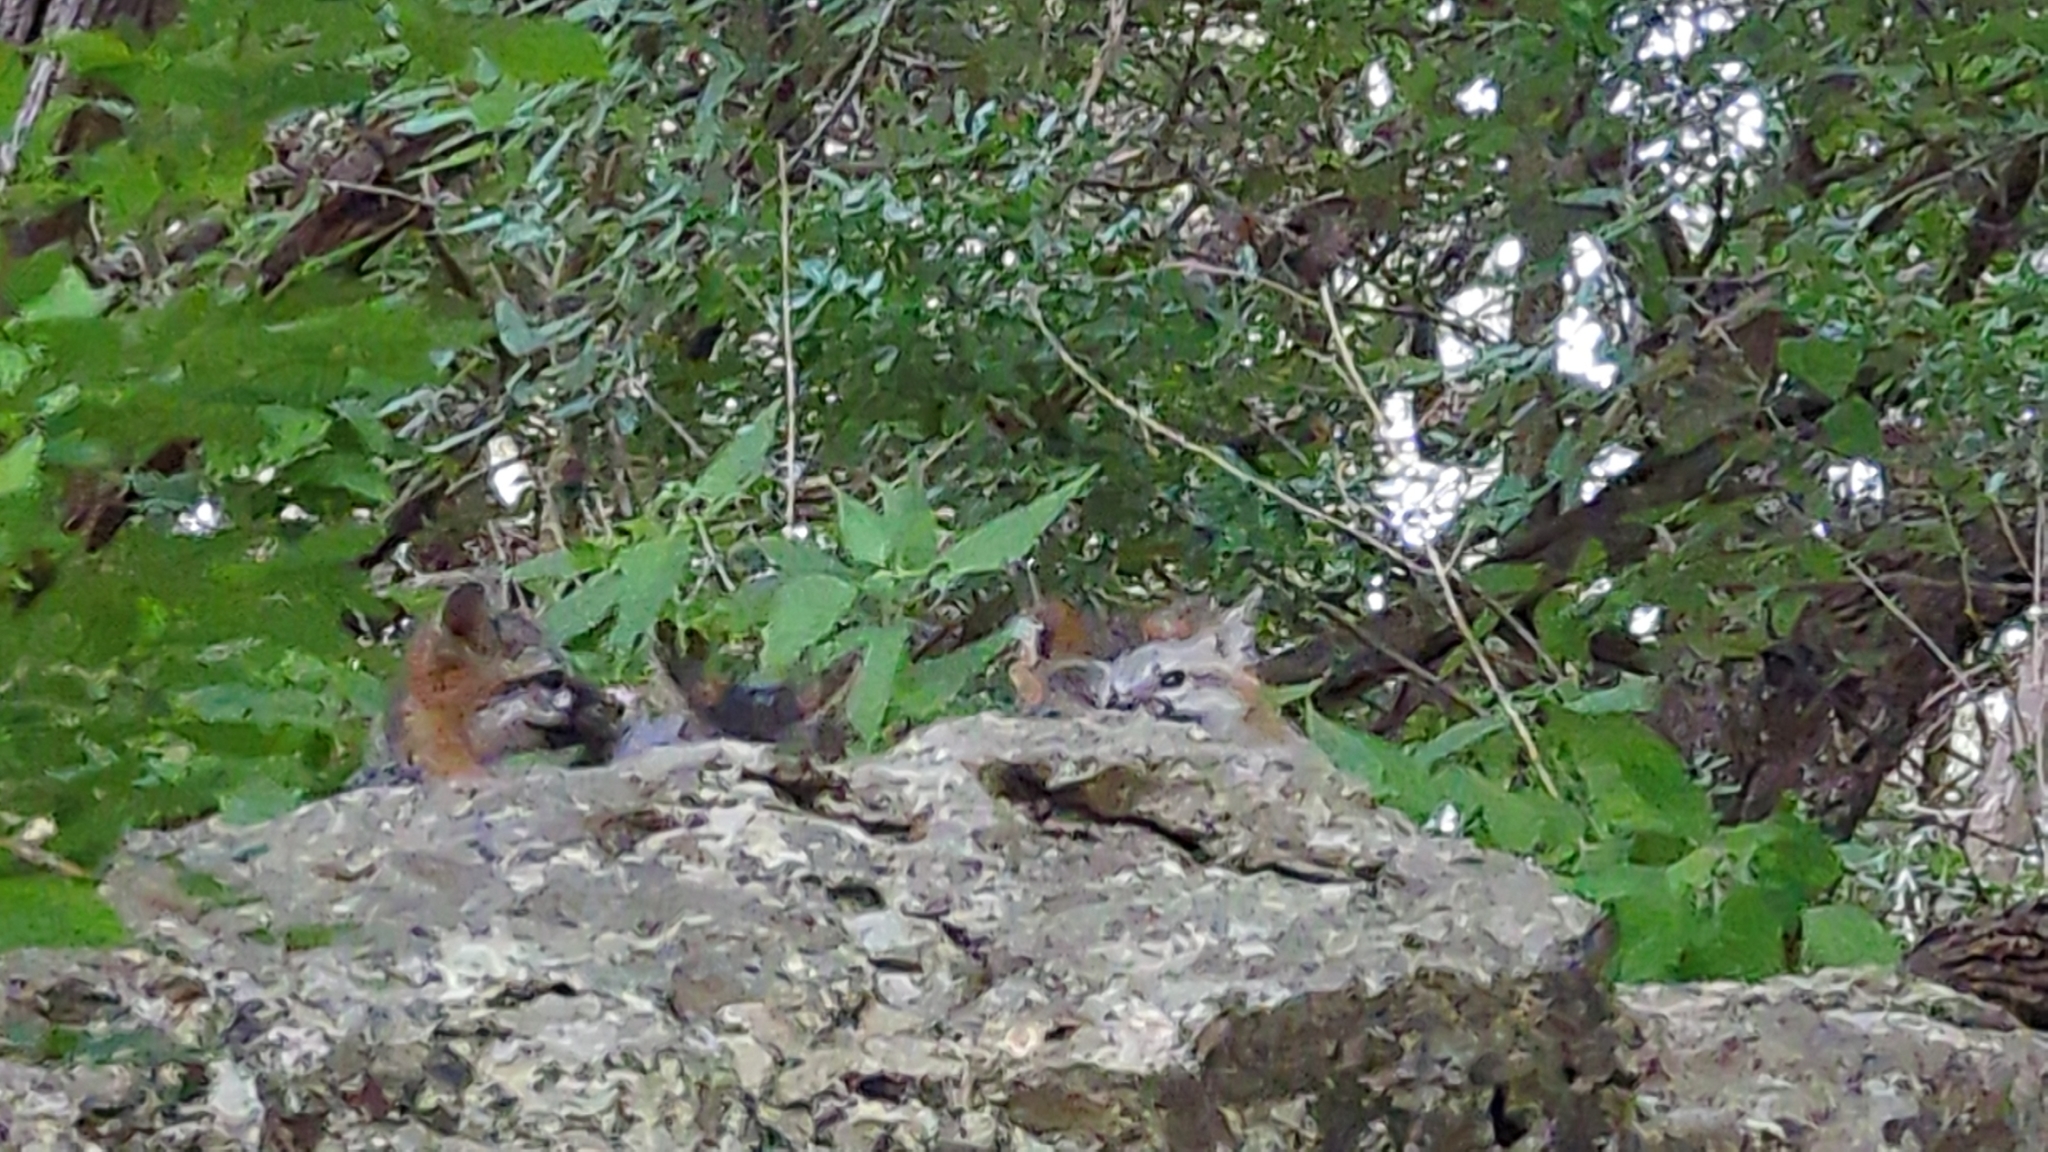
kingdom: Animalia
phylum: Chordata
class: Mammalia
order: Carnivora
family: Canidae
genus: Urocyon
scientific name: Urocyon cinereoargenteus
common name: Gray fox
